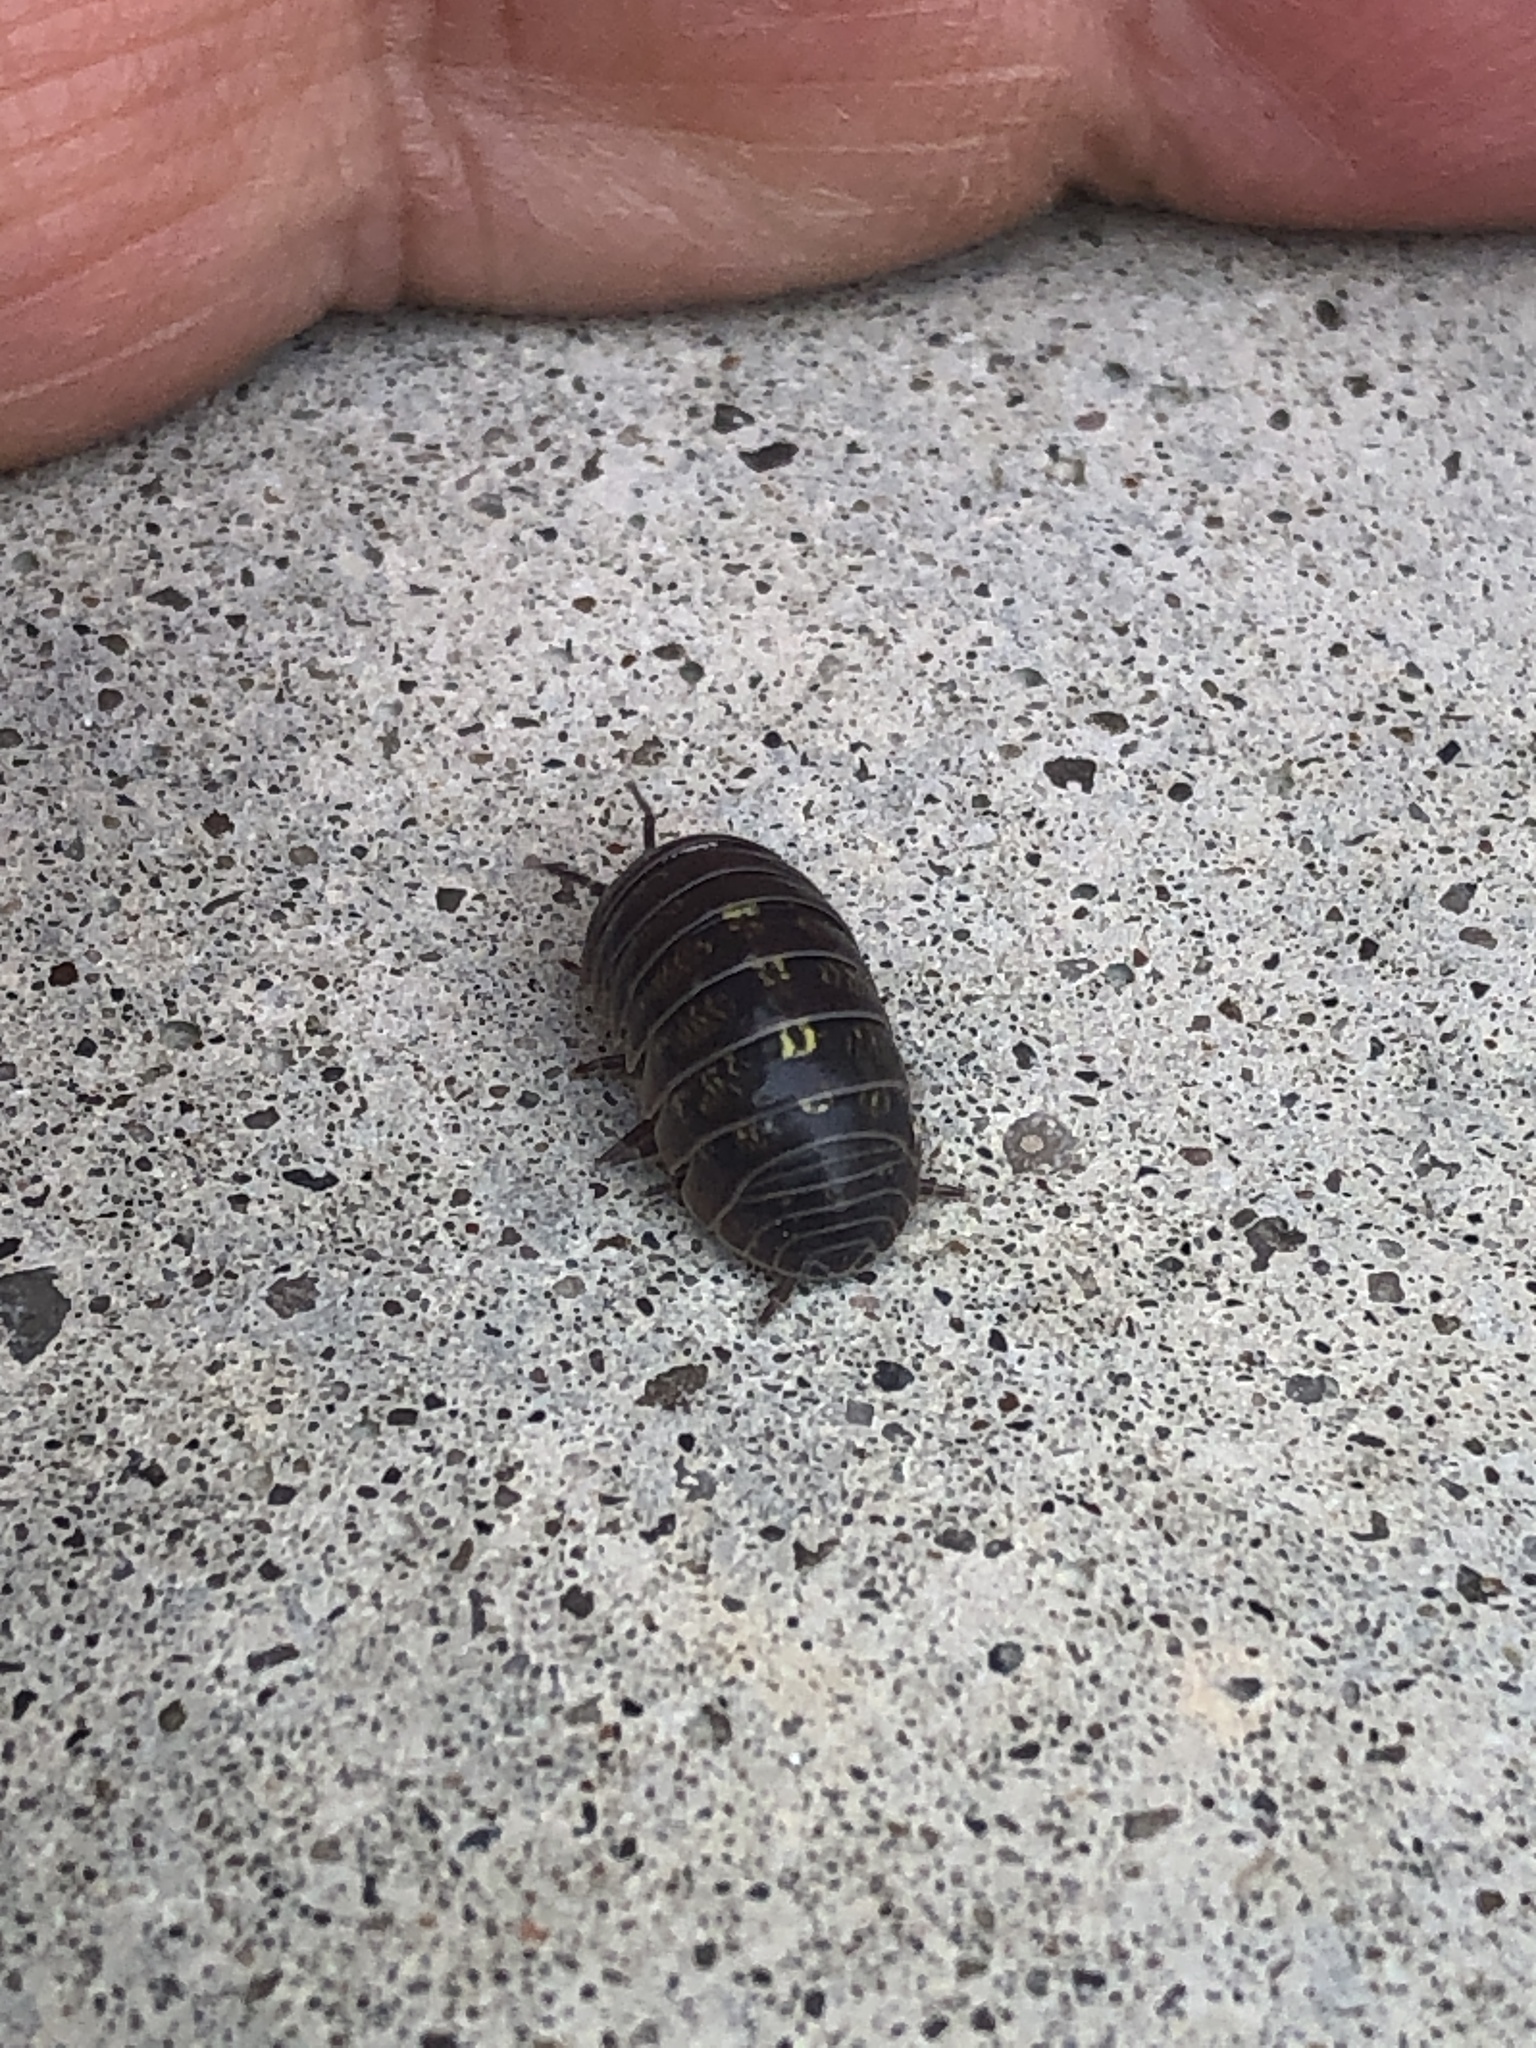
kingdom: Animalia
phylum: Arthropoda
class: Malacostraca
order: Isopoda
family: Armadillidiidae
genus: Armadillidium
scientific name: Armadillidium vulgare
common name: Common pill woodlouse
